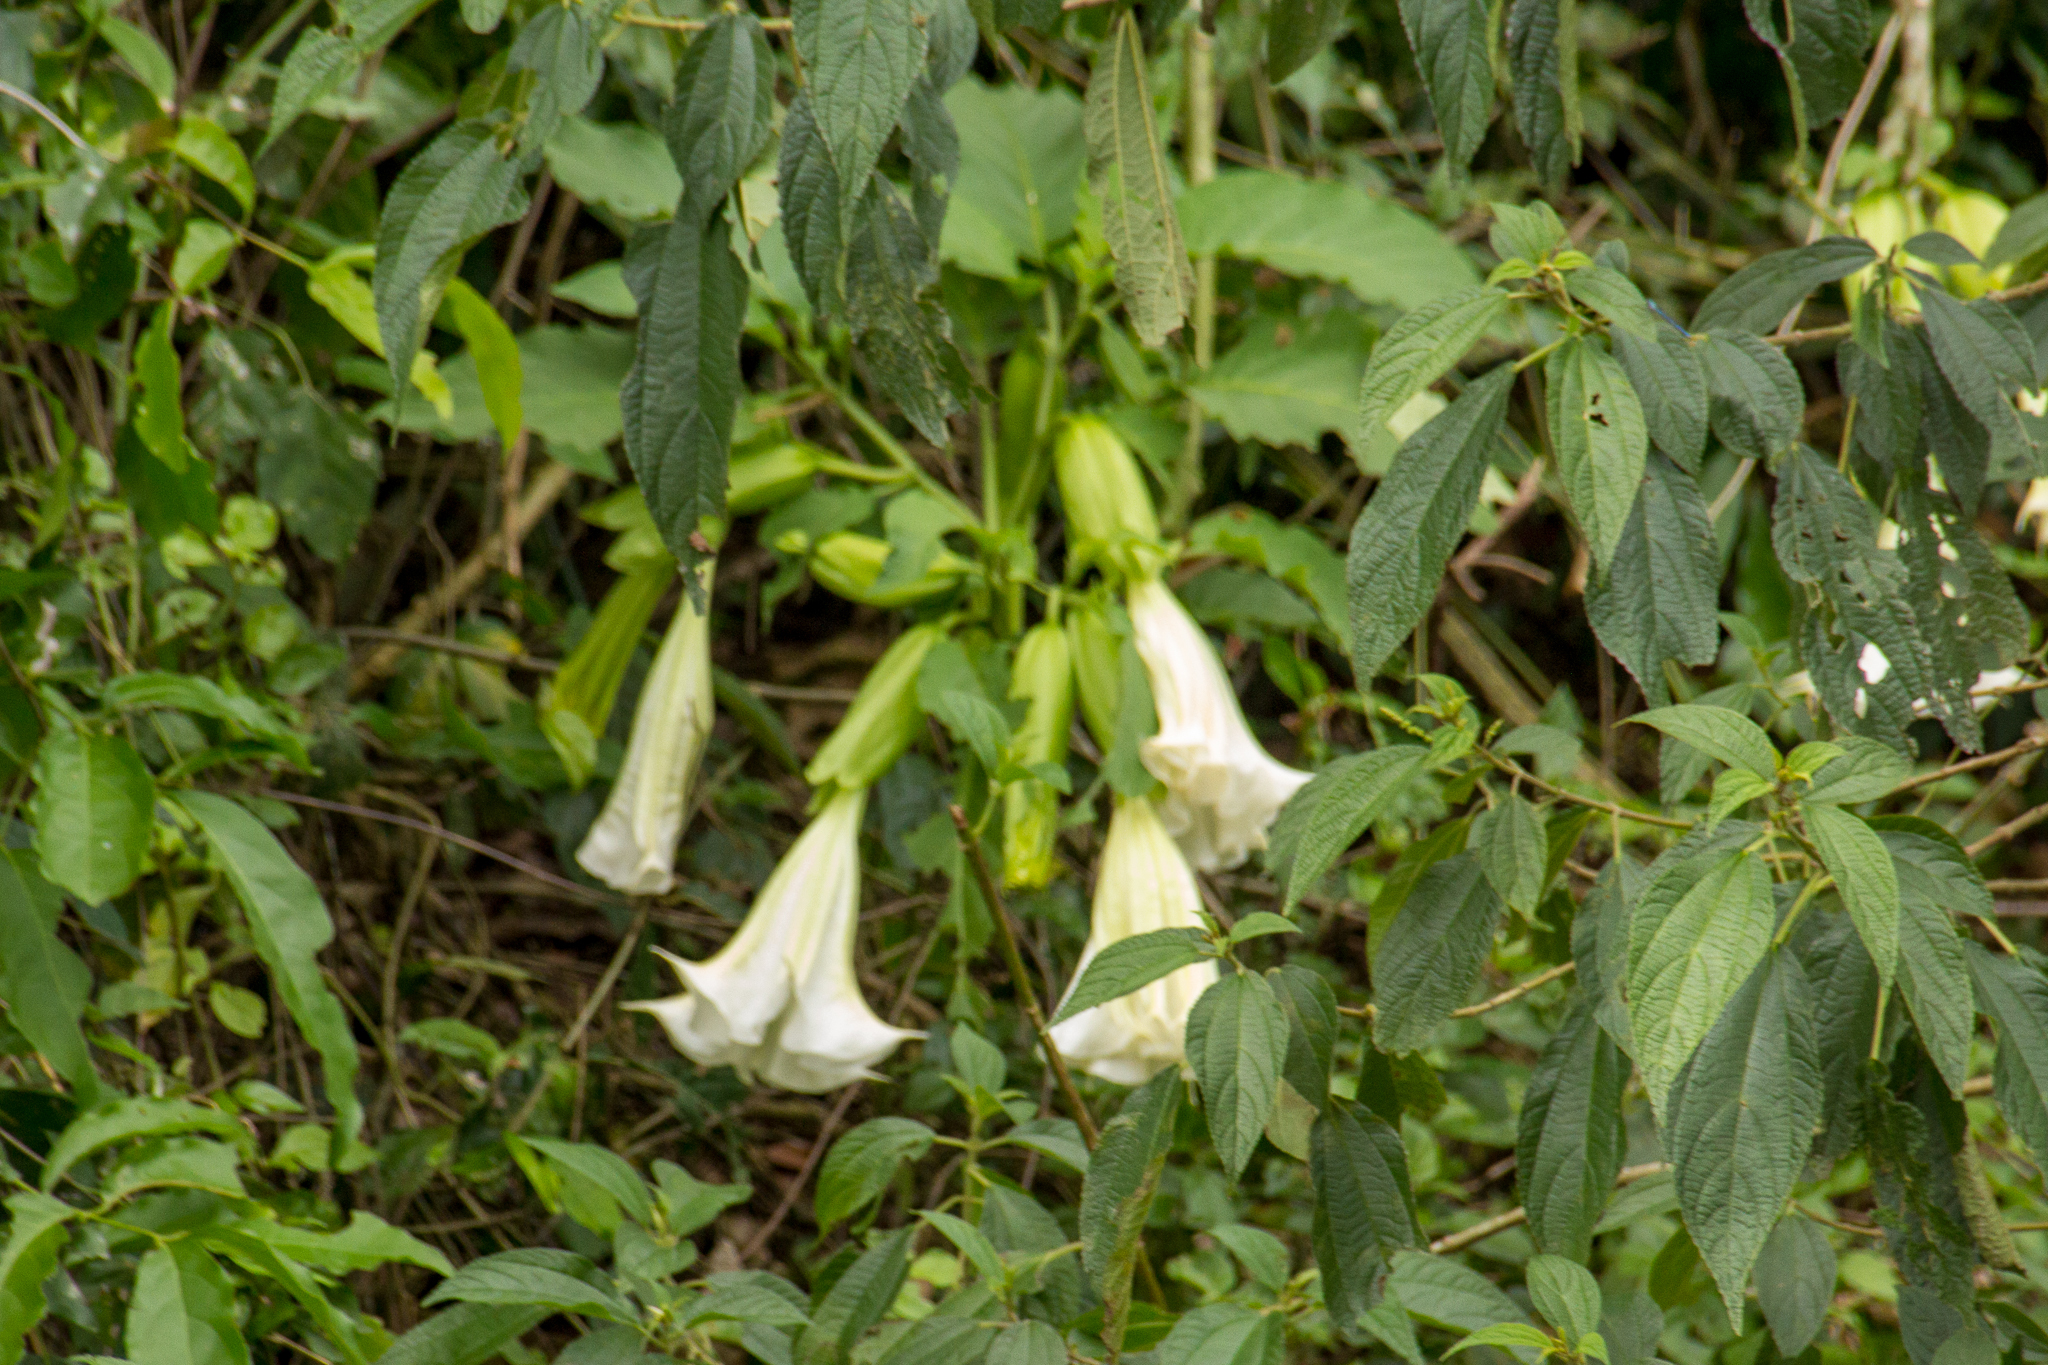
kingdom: Plantae
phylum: Tracheophyta
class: Magnoliopsida
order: Solanales
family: Solanaceae
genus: Brugmansia
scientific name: Brugmansia suaveolens
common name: Angel's tears
